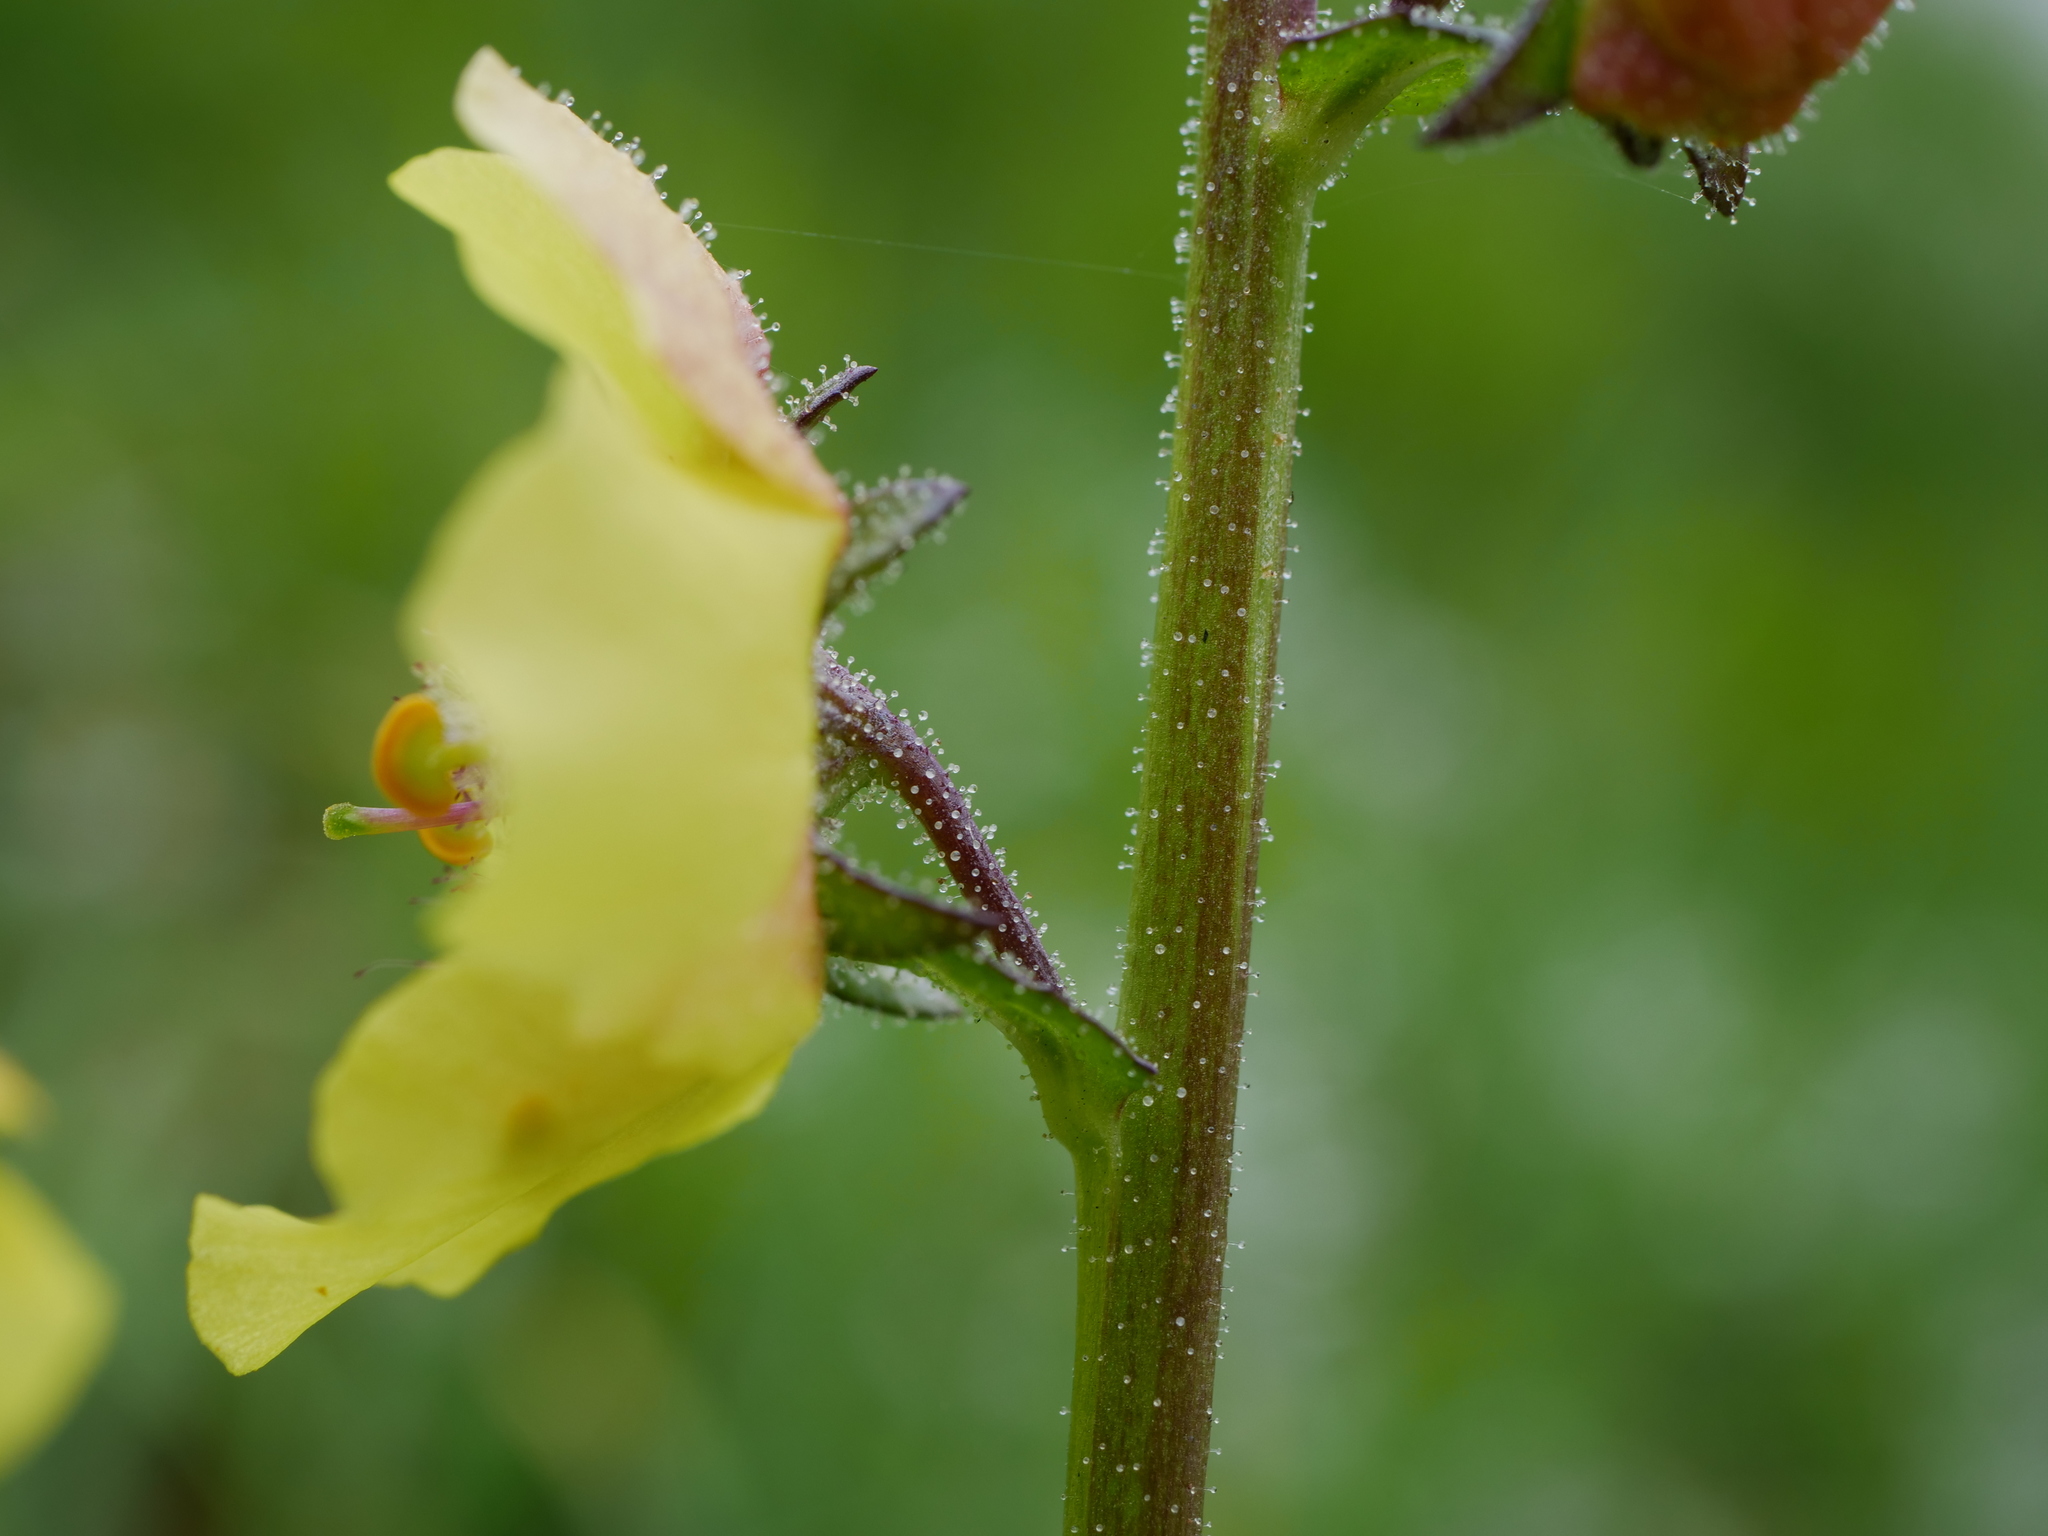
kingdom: Plantae
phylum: Tracheophyta
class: Magnoliopsida
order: Lamiales
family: Scrophulariaceae
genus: Verbascum
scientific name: Verbascum blattaria
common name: Moth mullein
